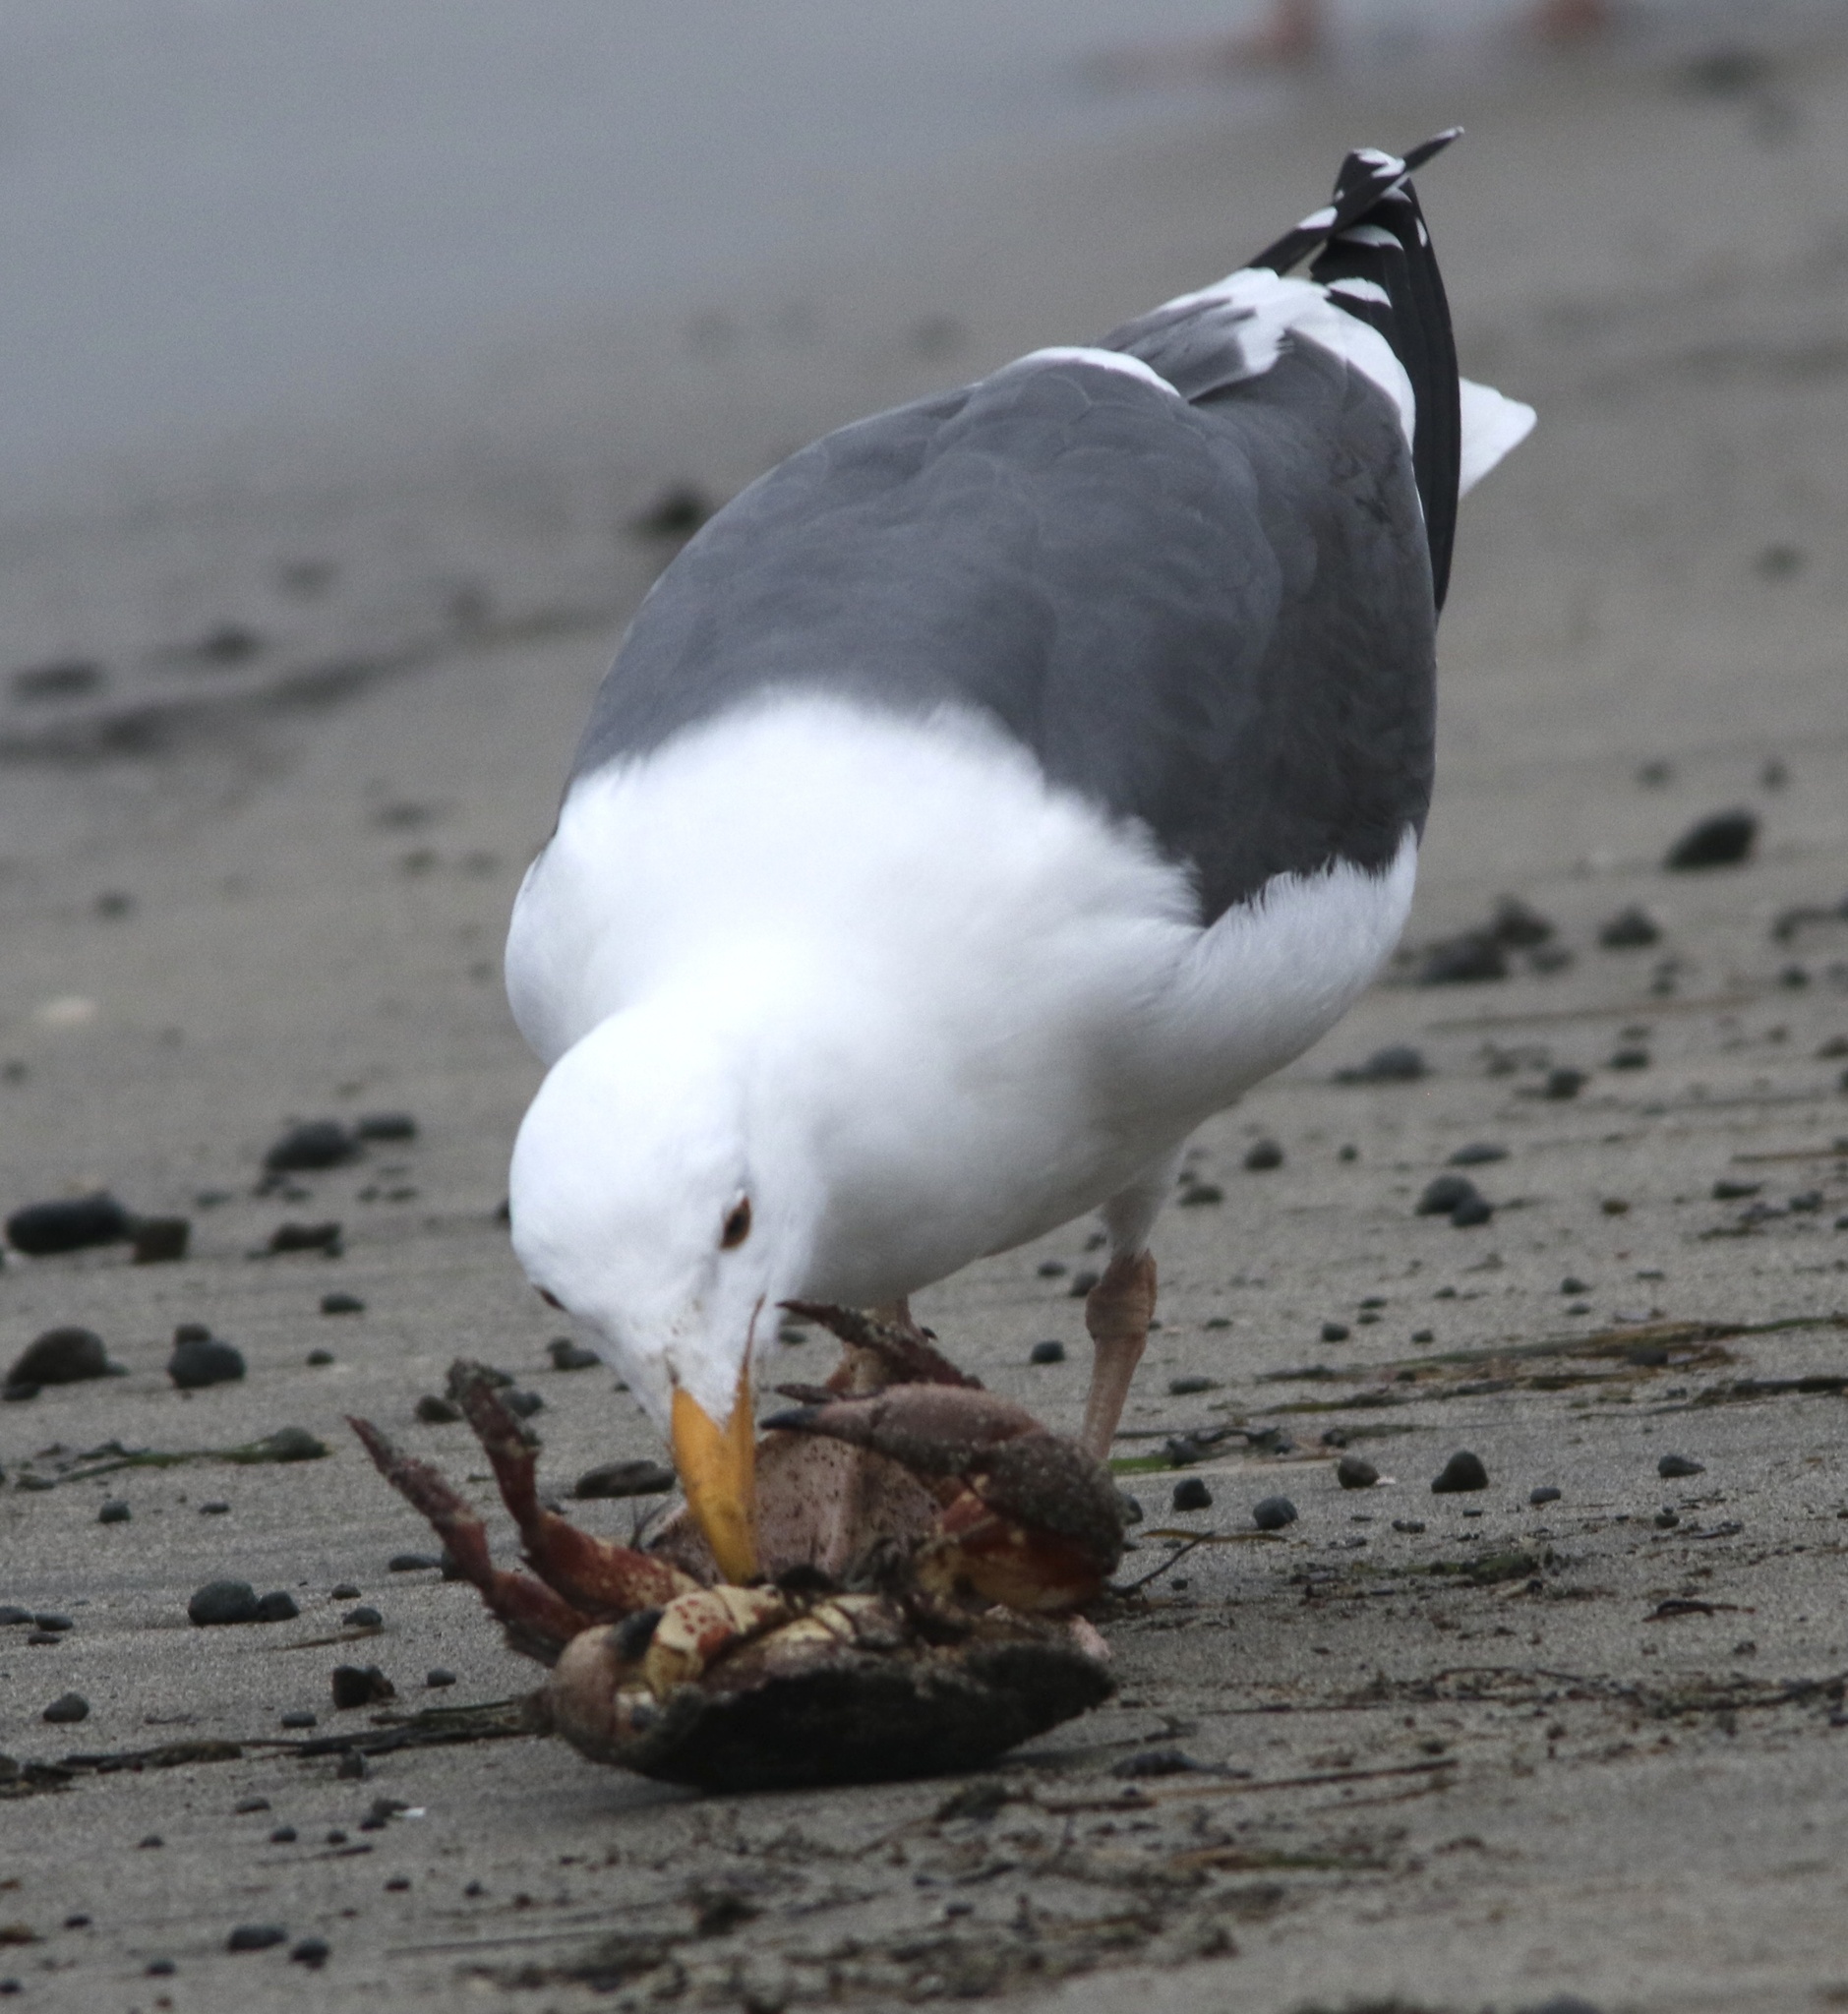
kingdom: Animalia
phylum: Chordata
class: Aves
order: Charadriiformes
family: Laridae
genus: Larus
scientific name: Larus occidentalis
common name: Western gull
